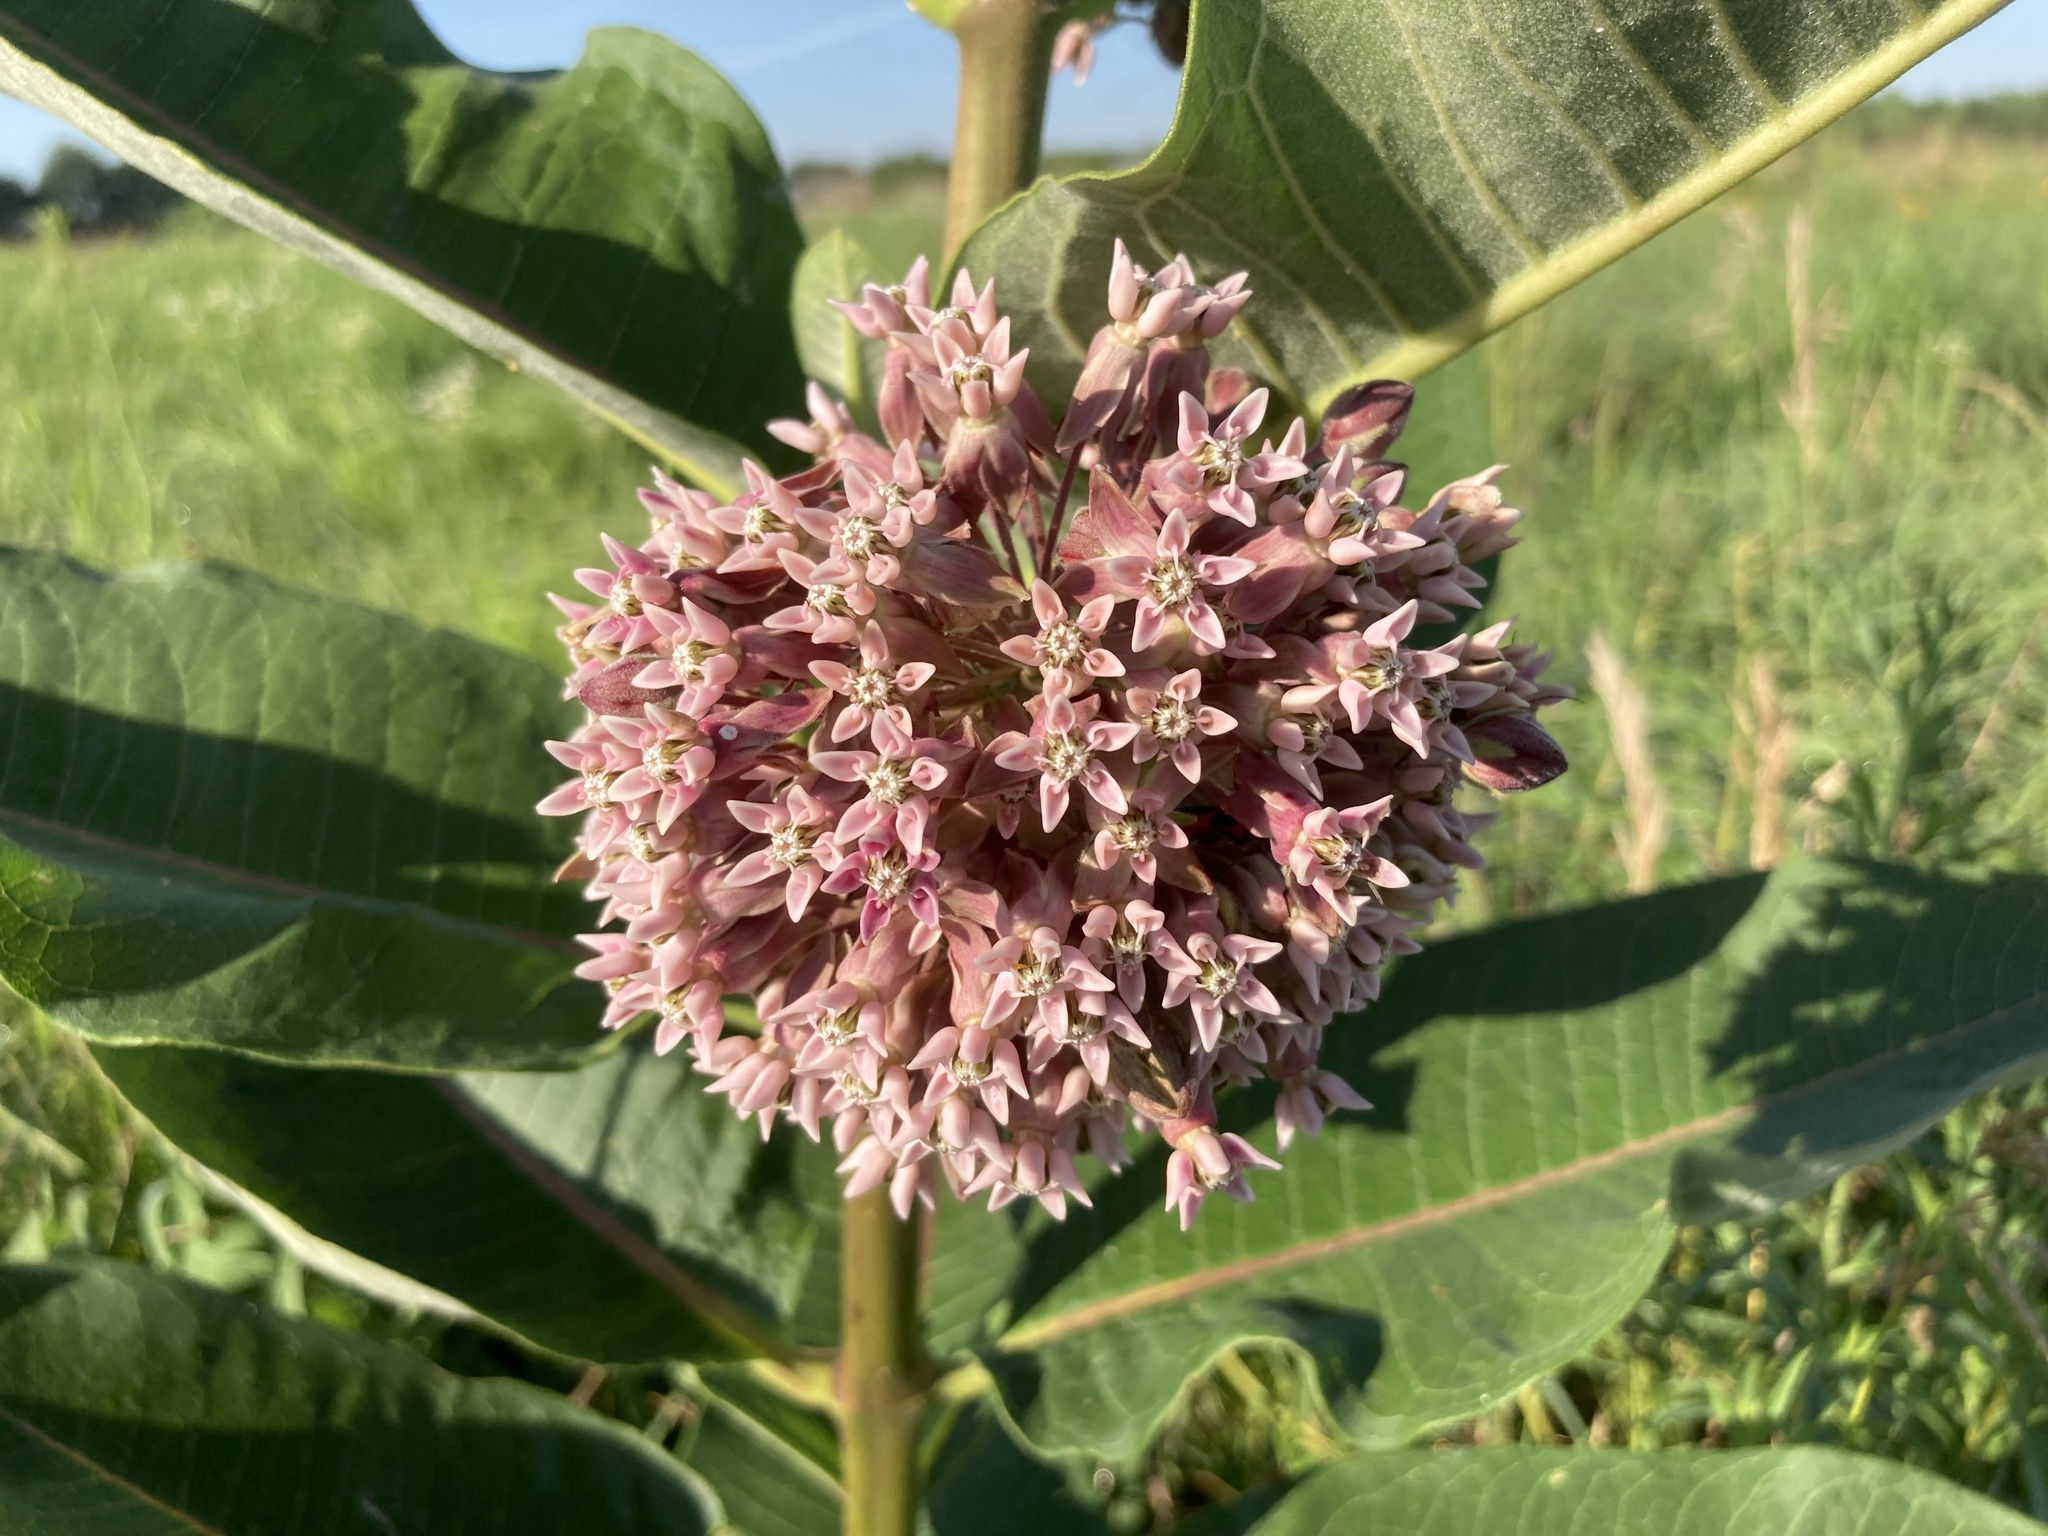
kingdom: Plantae
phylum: Tracheophyta
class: Magnoliopsida
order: Gentianales
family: Apocynaceae
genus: Asclepias
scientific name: Asclepias syriaca
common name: Common milkweed
